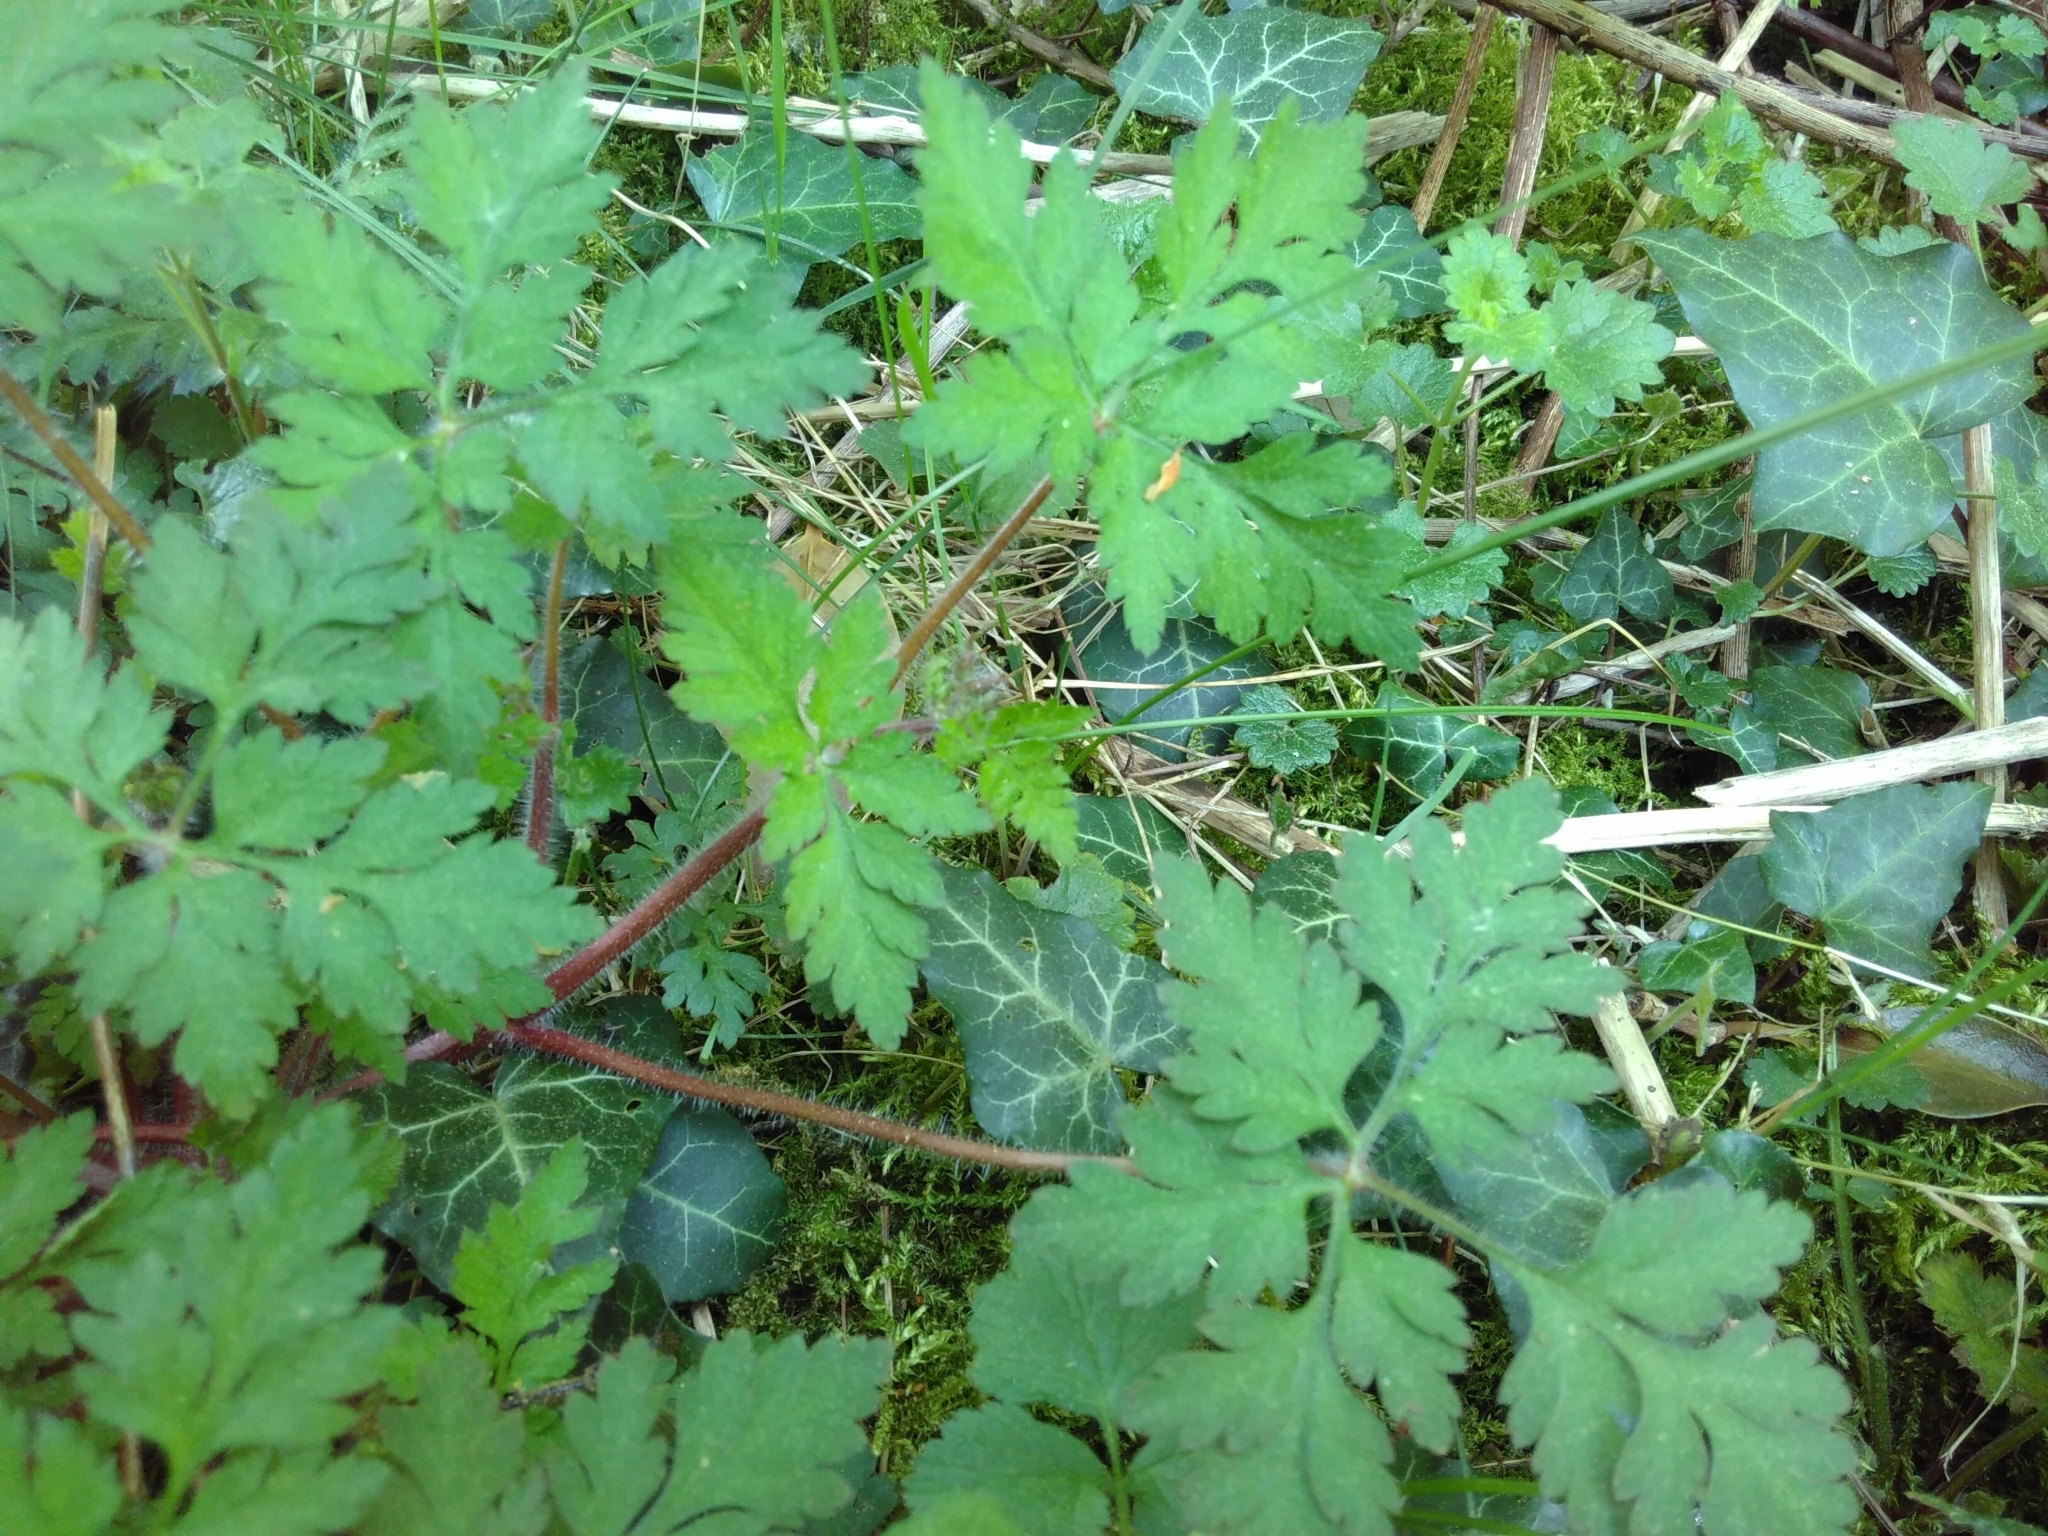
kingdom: Plantae
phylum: Tracheophyta
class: Magnoliopsida
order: Geraniales
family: Geraniaceae
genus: Geranium
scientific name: Geranium robertianum
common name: Herb-robert
